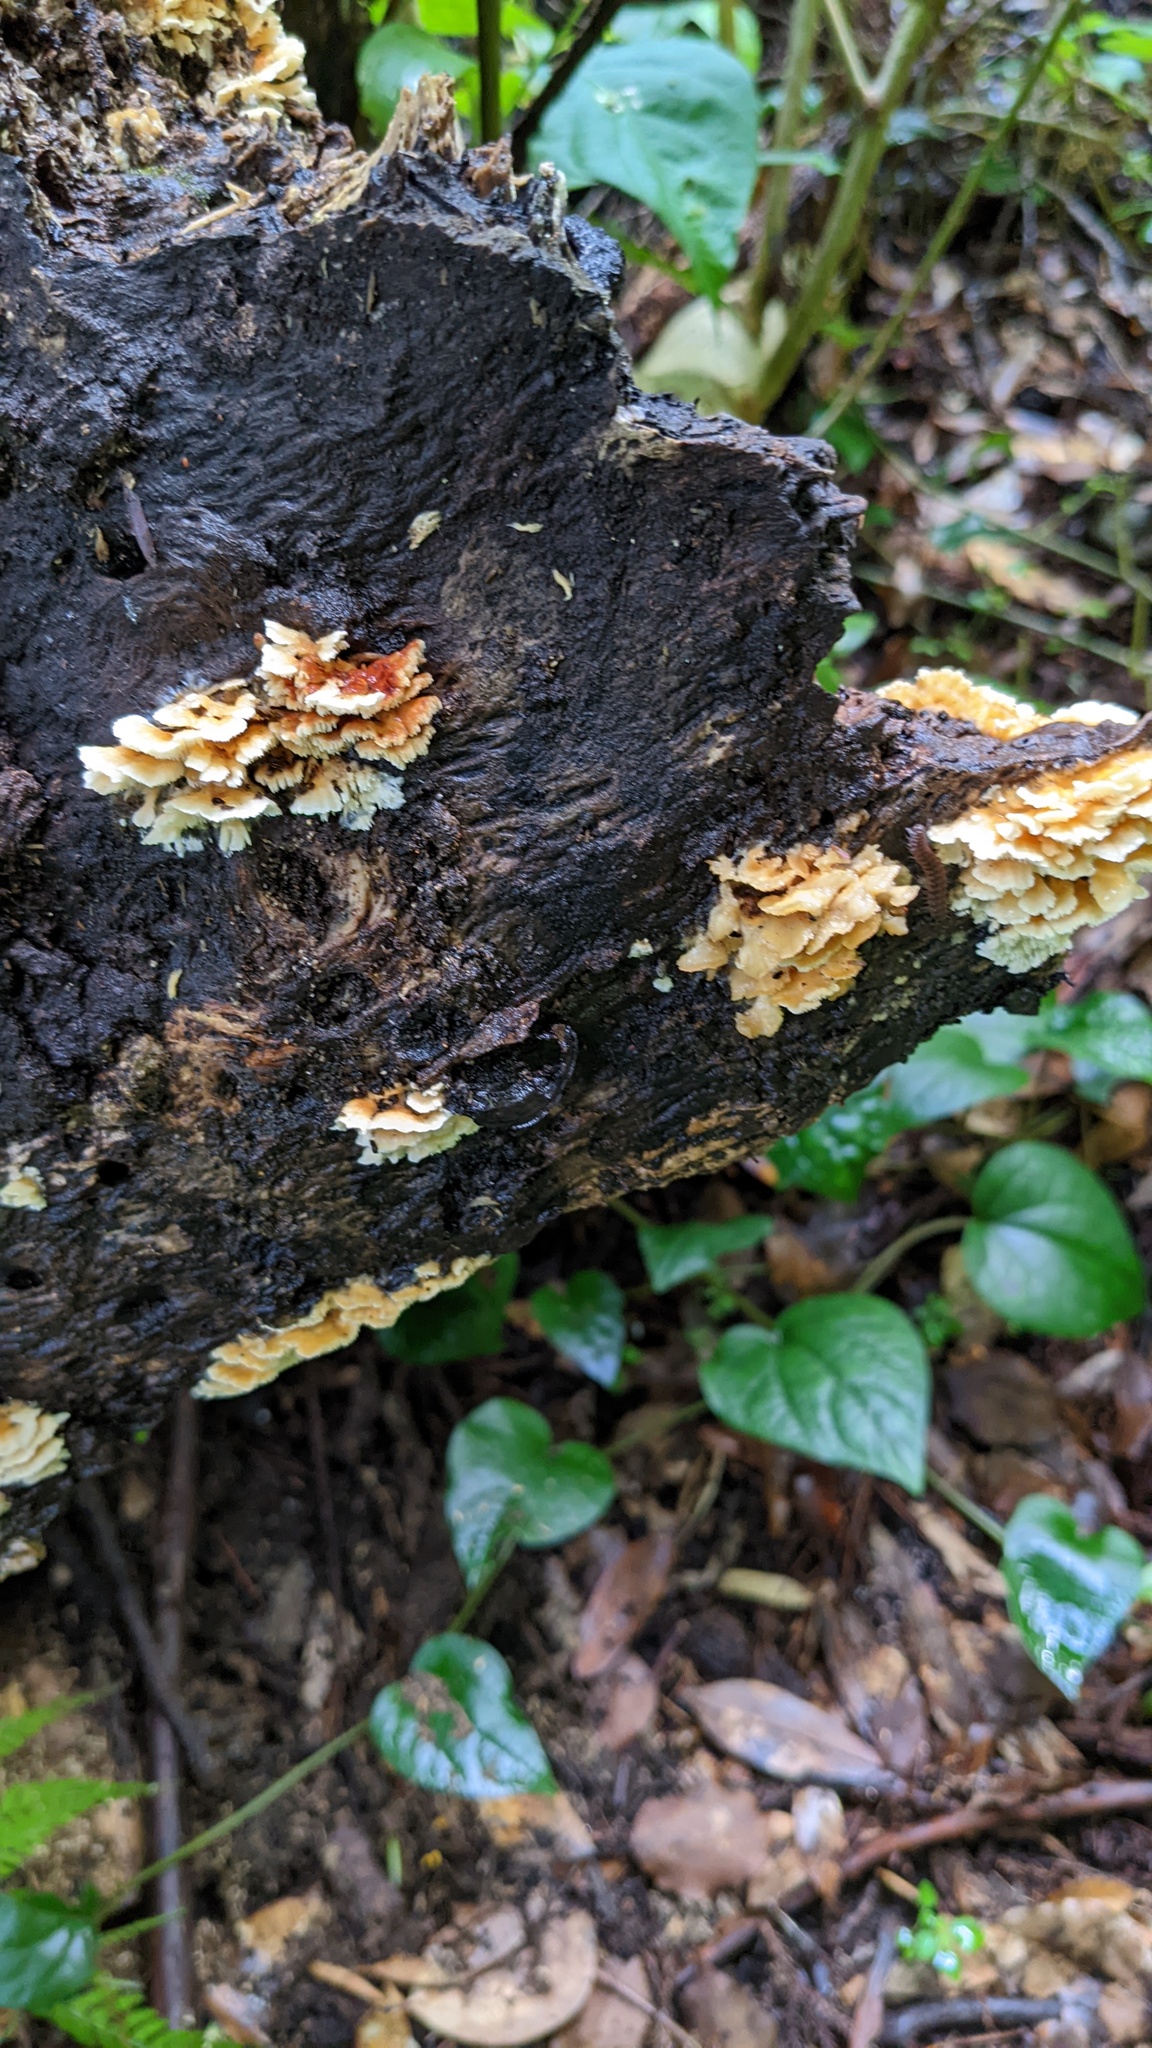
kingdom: Fungi
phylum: Basidiomycota
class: Agaricomycetes
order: Polyporales
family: Irpicaceae
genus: Irpex
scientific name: Irpex consors
